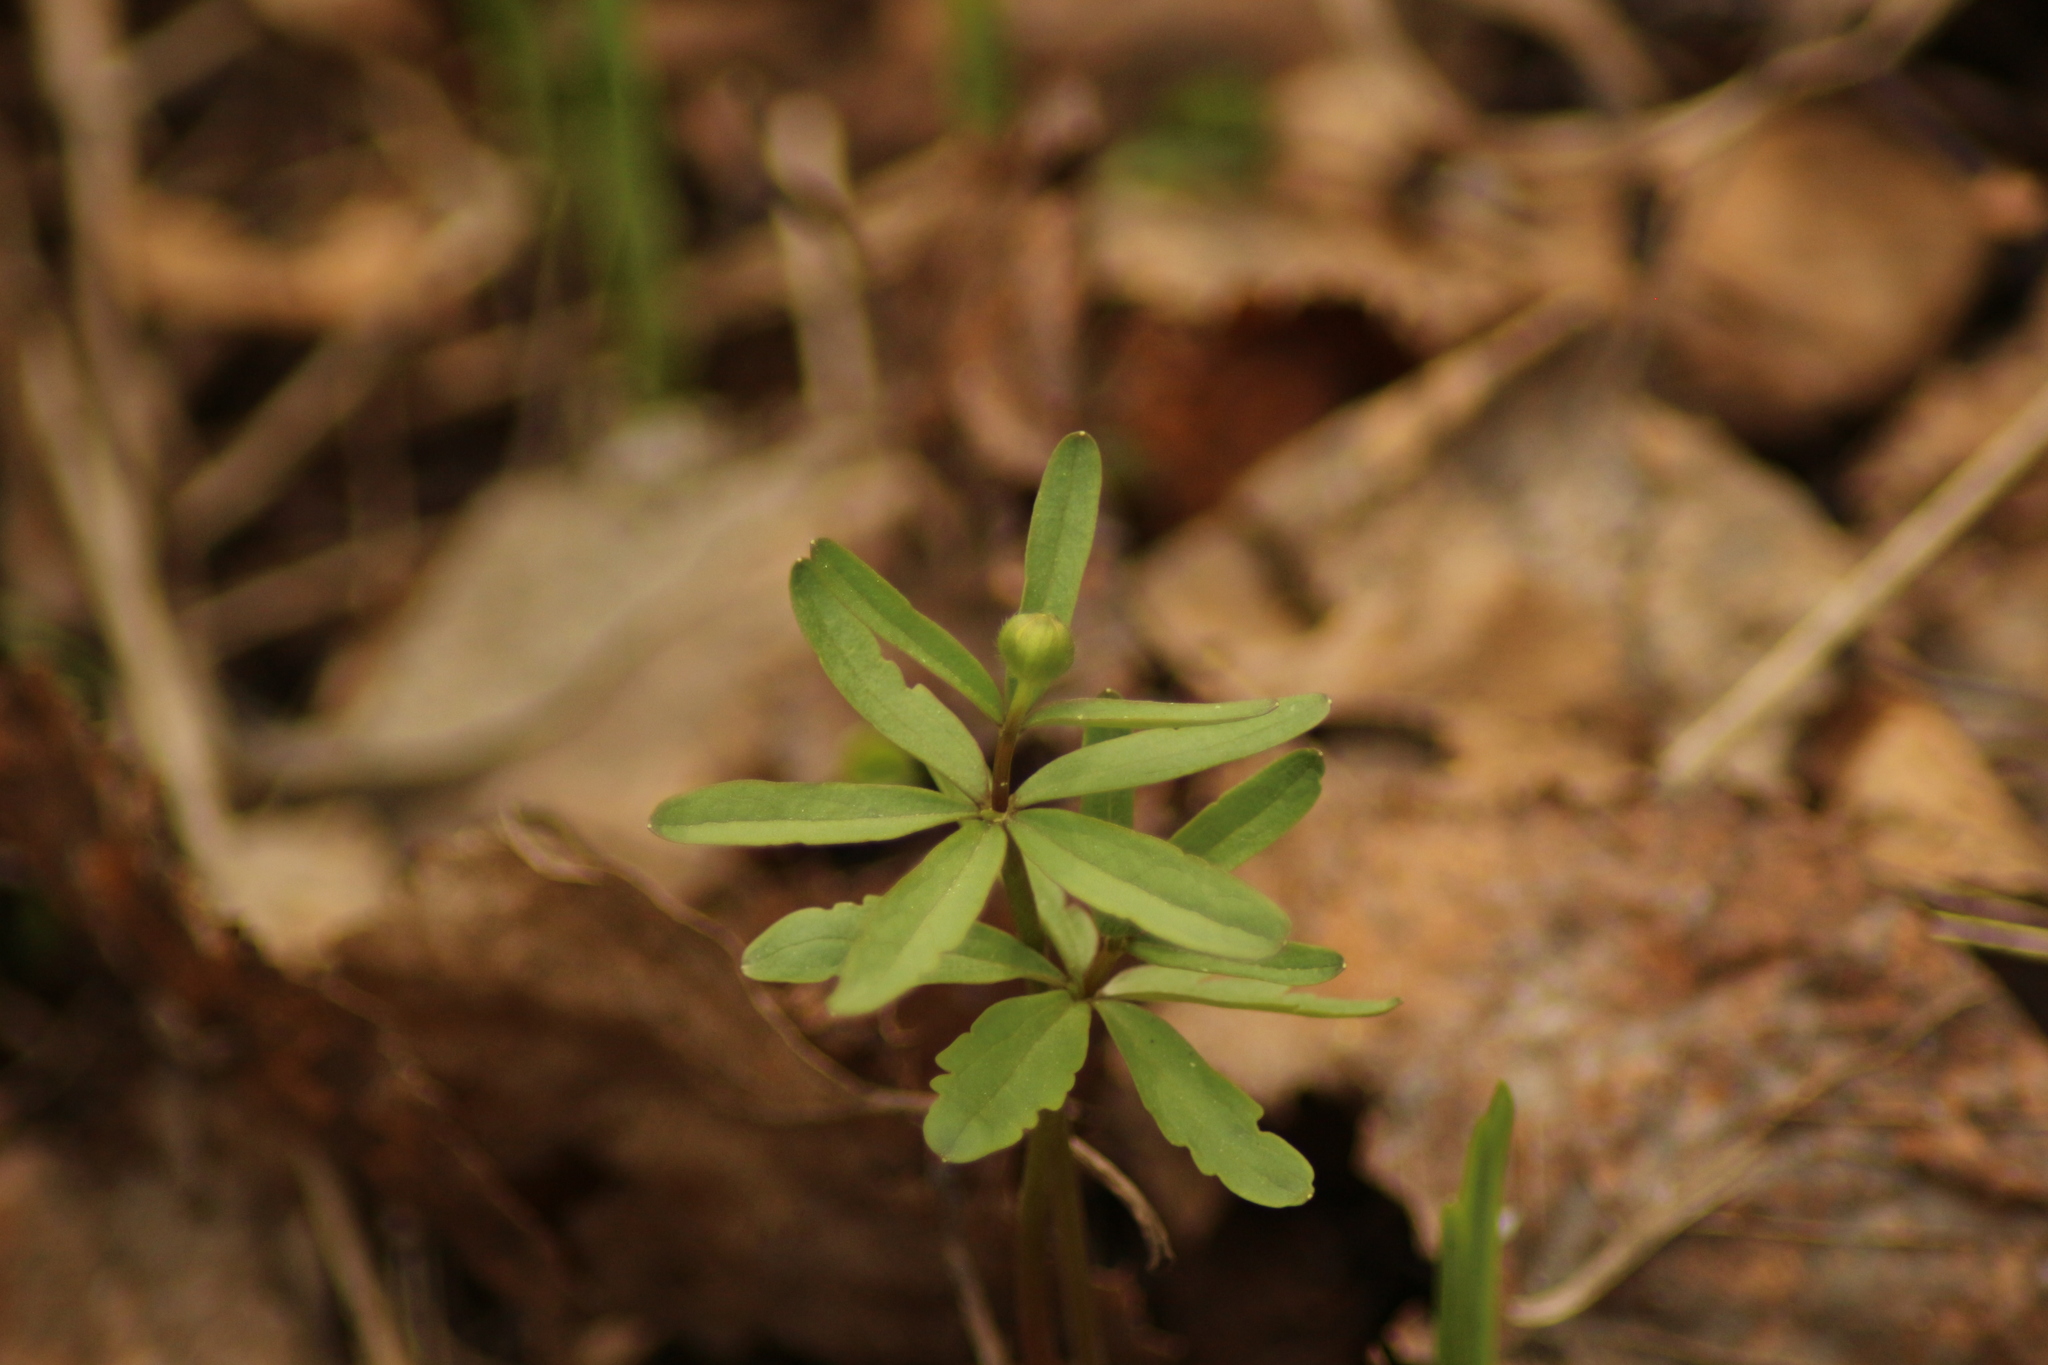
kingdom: Plantae
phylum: Tracheophyta
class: Magnoliopsida
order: Ranunculales
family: Ranunculaceae
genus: Ranunculus
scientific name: Ranunculus monophyllus
